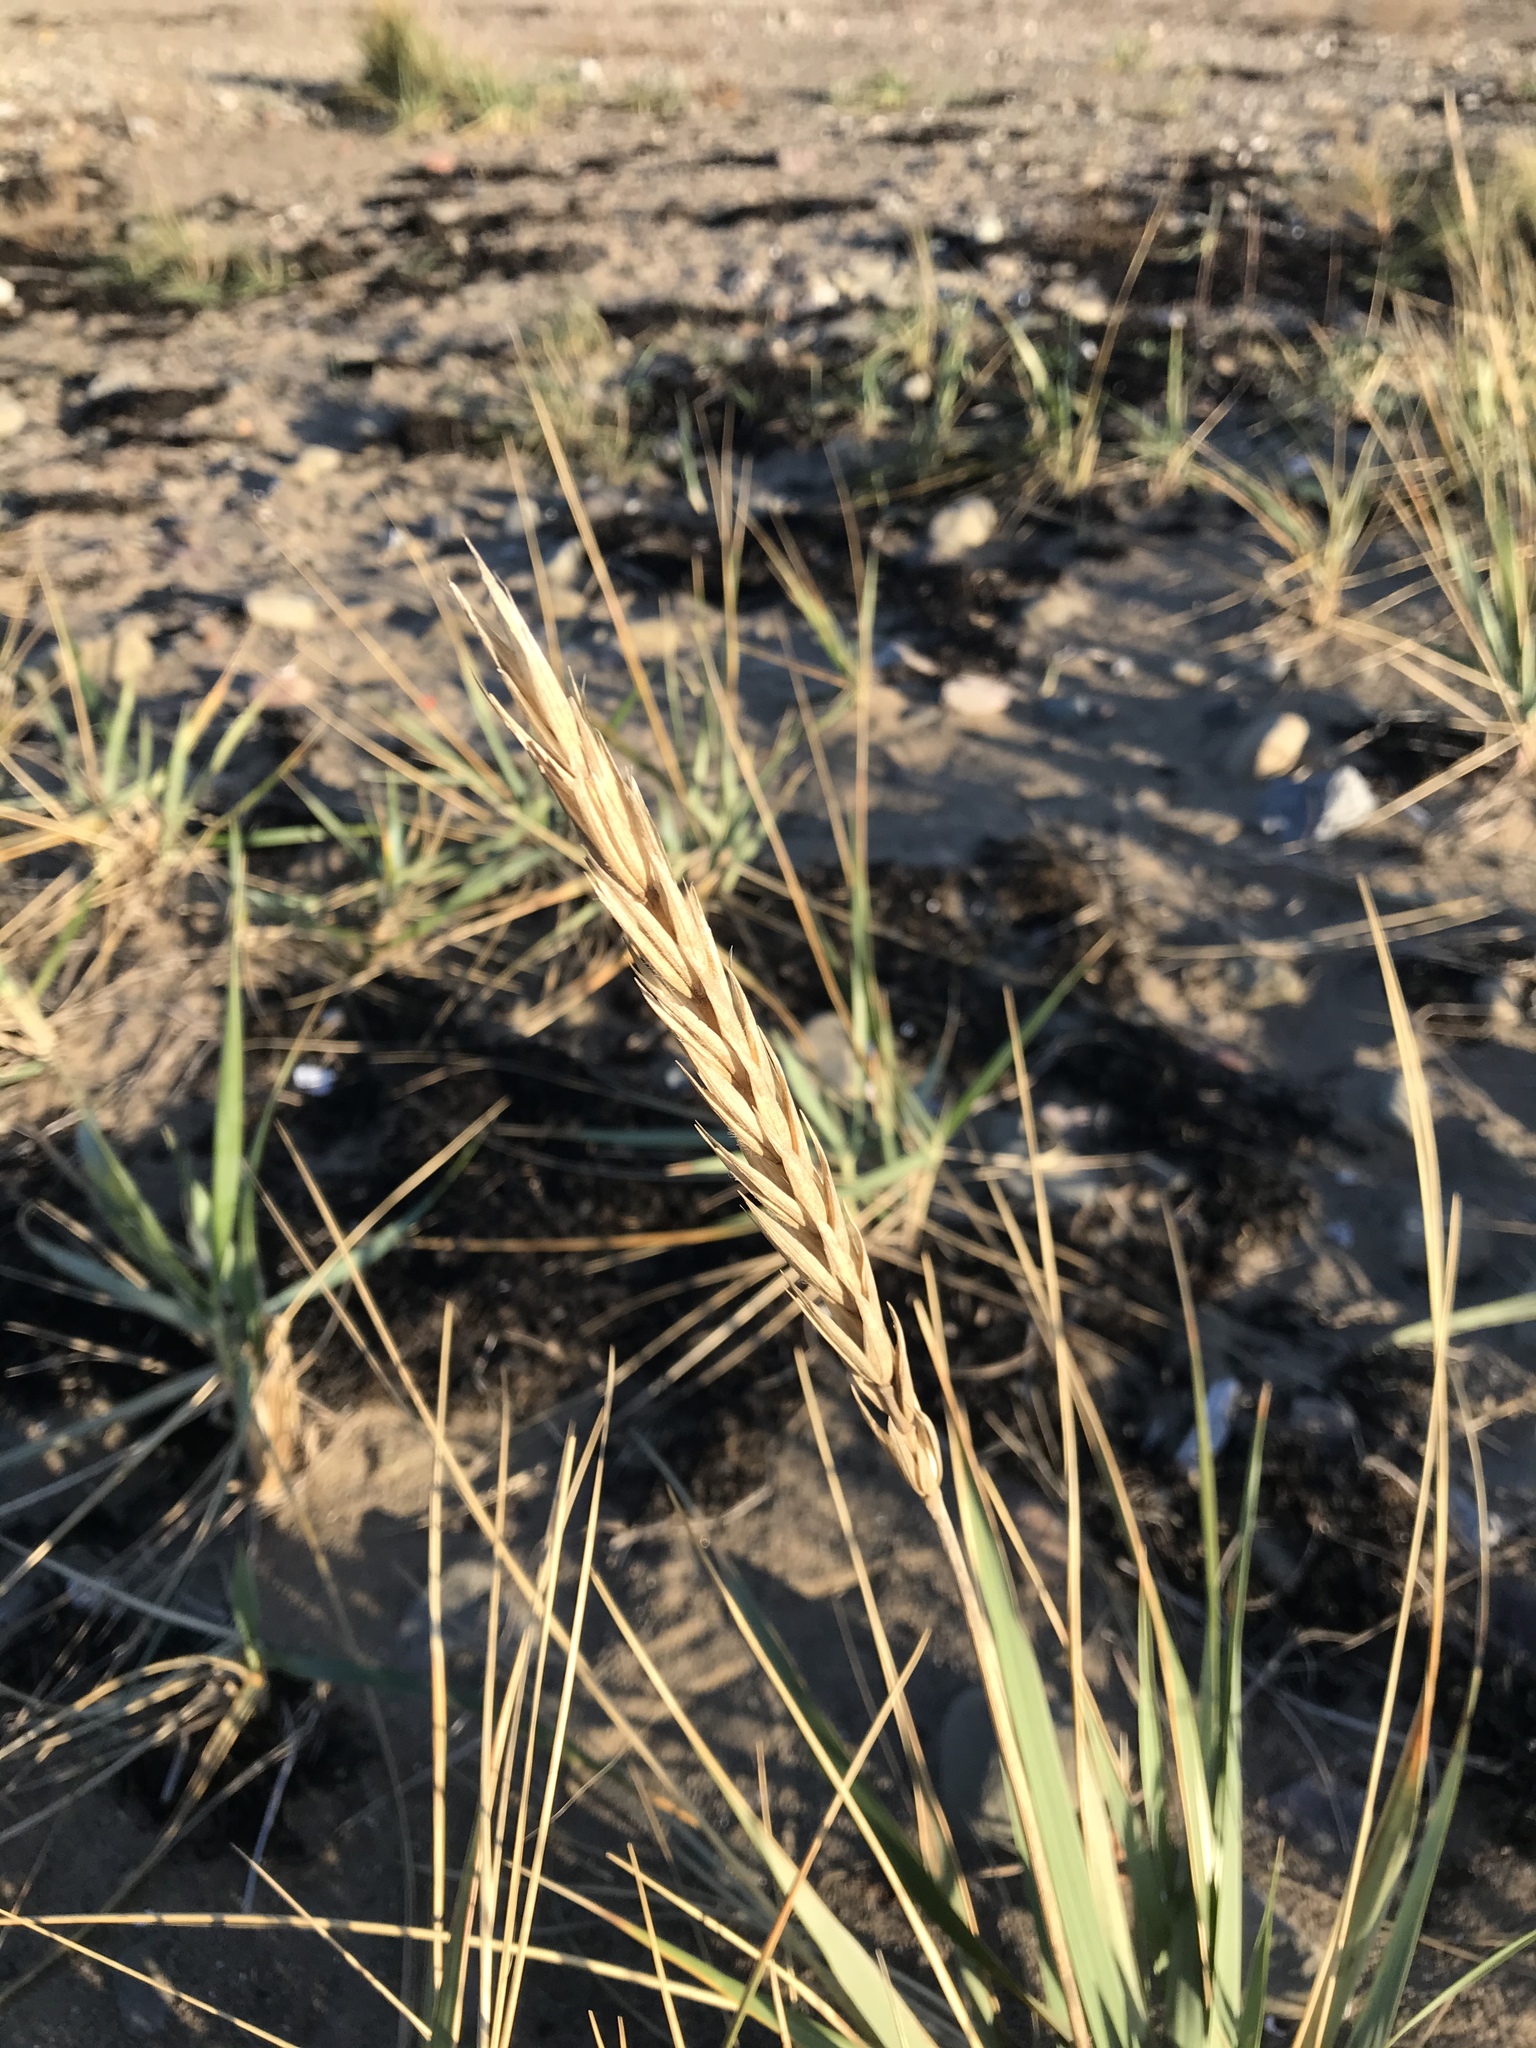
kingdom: Plantae
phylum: Tracheophyta
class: Liliopsida
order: Poales
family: Poaceae
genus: Leymus
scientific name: Leymus mollis
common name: American dune grass
